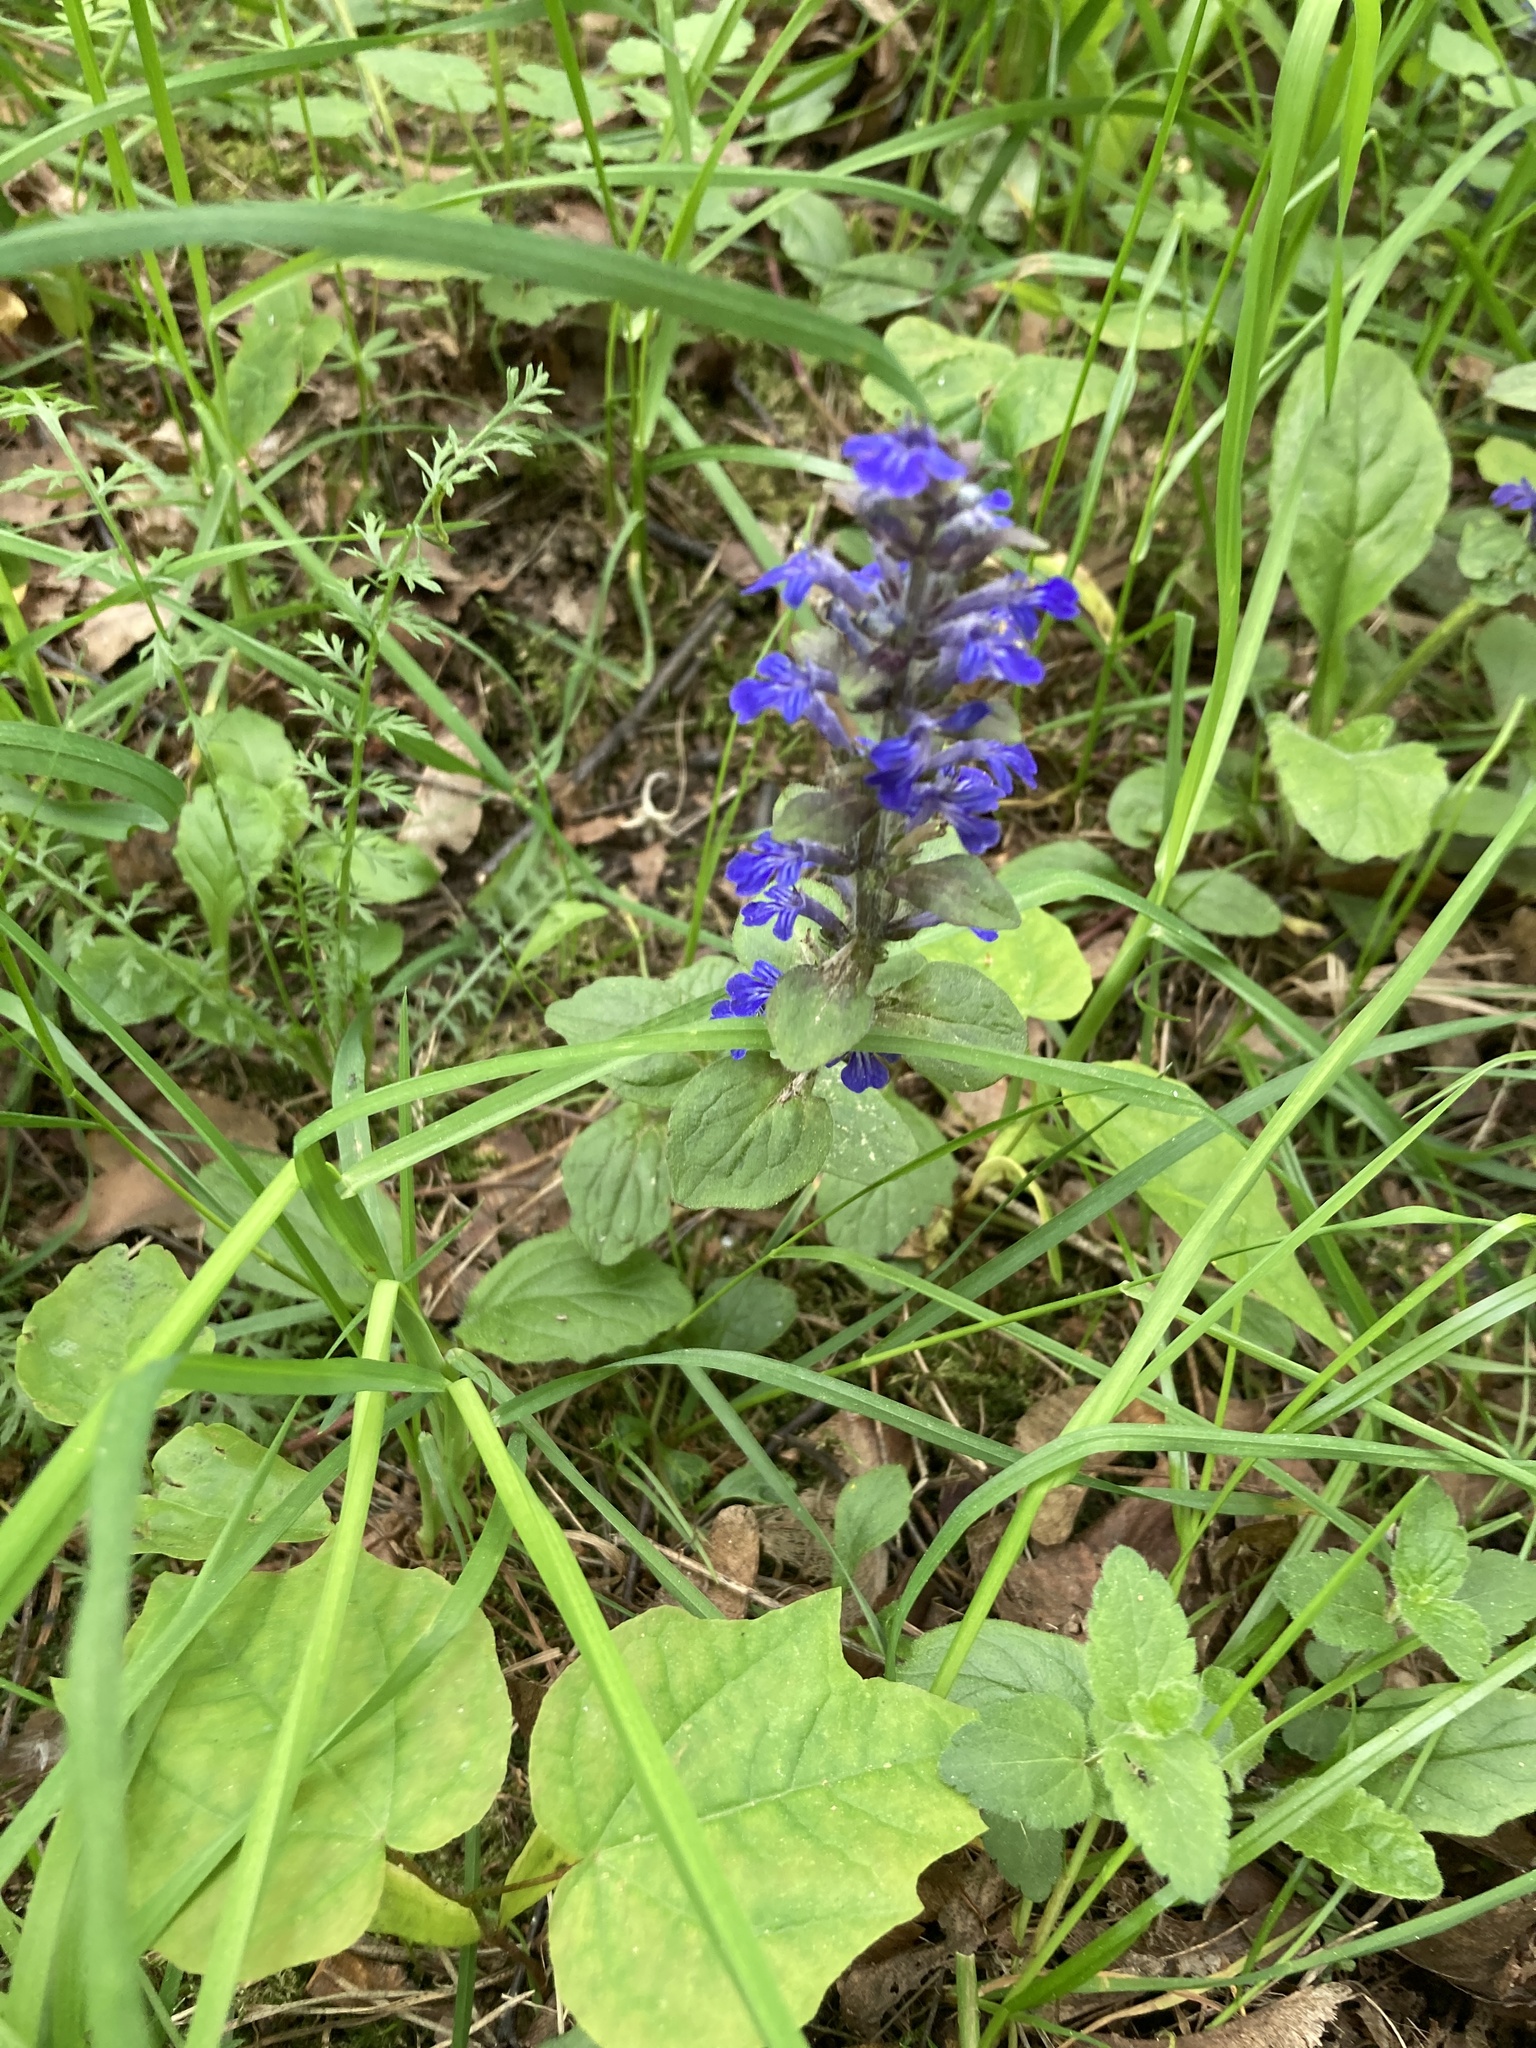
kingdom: Plantae
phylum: Tracheophyta
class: Magnoliopsida
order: Lamiales
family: Lamiaceae
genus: Ajuga
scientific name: Ajuga reptans
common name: Bugle
